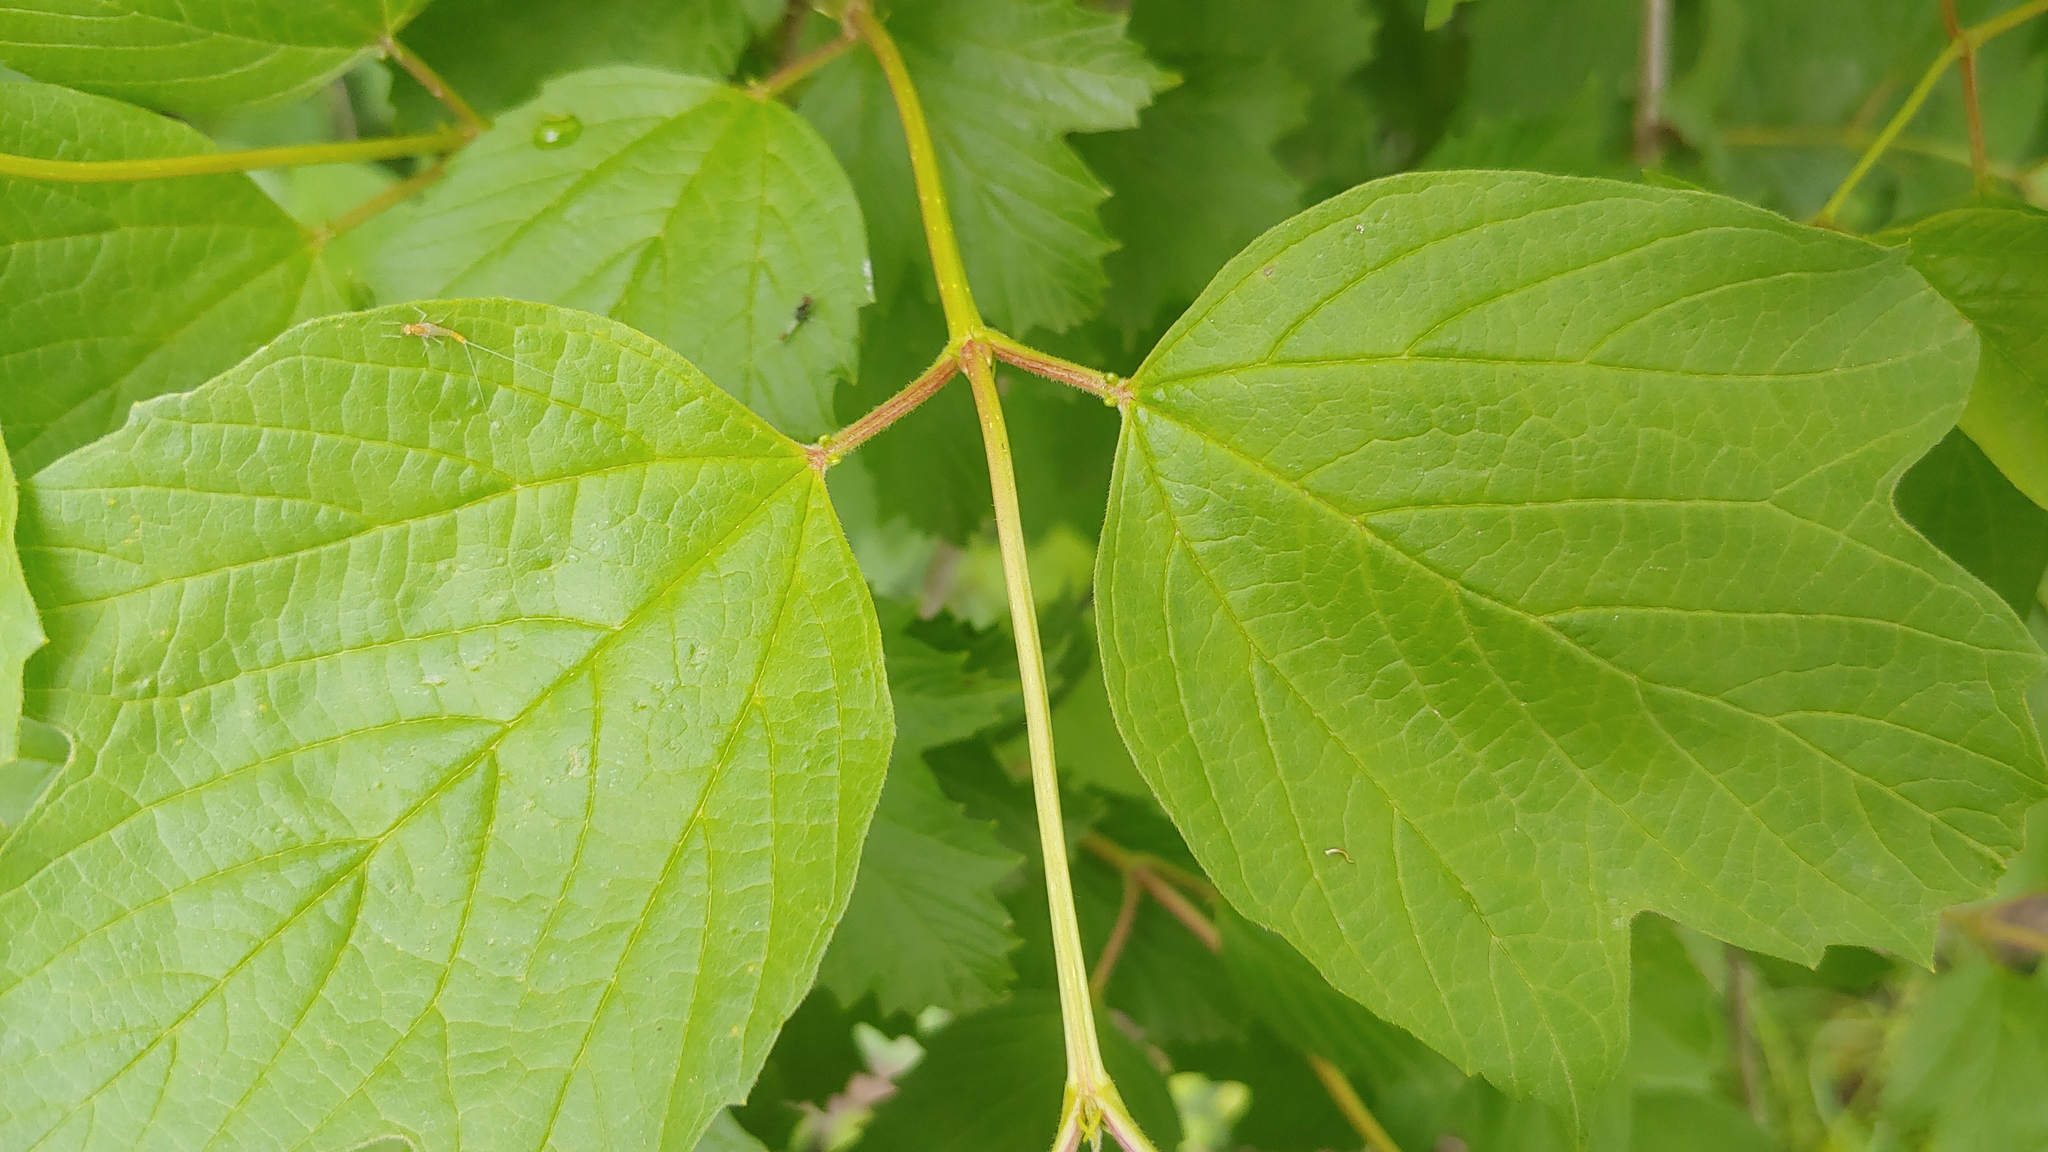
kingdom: Plantae
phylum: Tracheophyta
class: Magnoliopsida
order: Dipsacales
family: Viburnaceae
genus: Viburnum
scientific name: Viburnum opulus
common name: Guelder-rose
